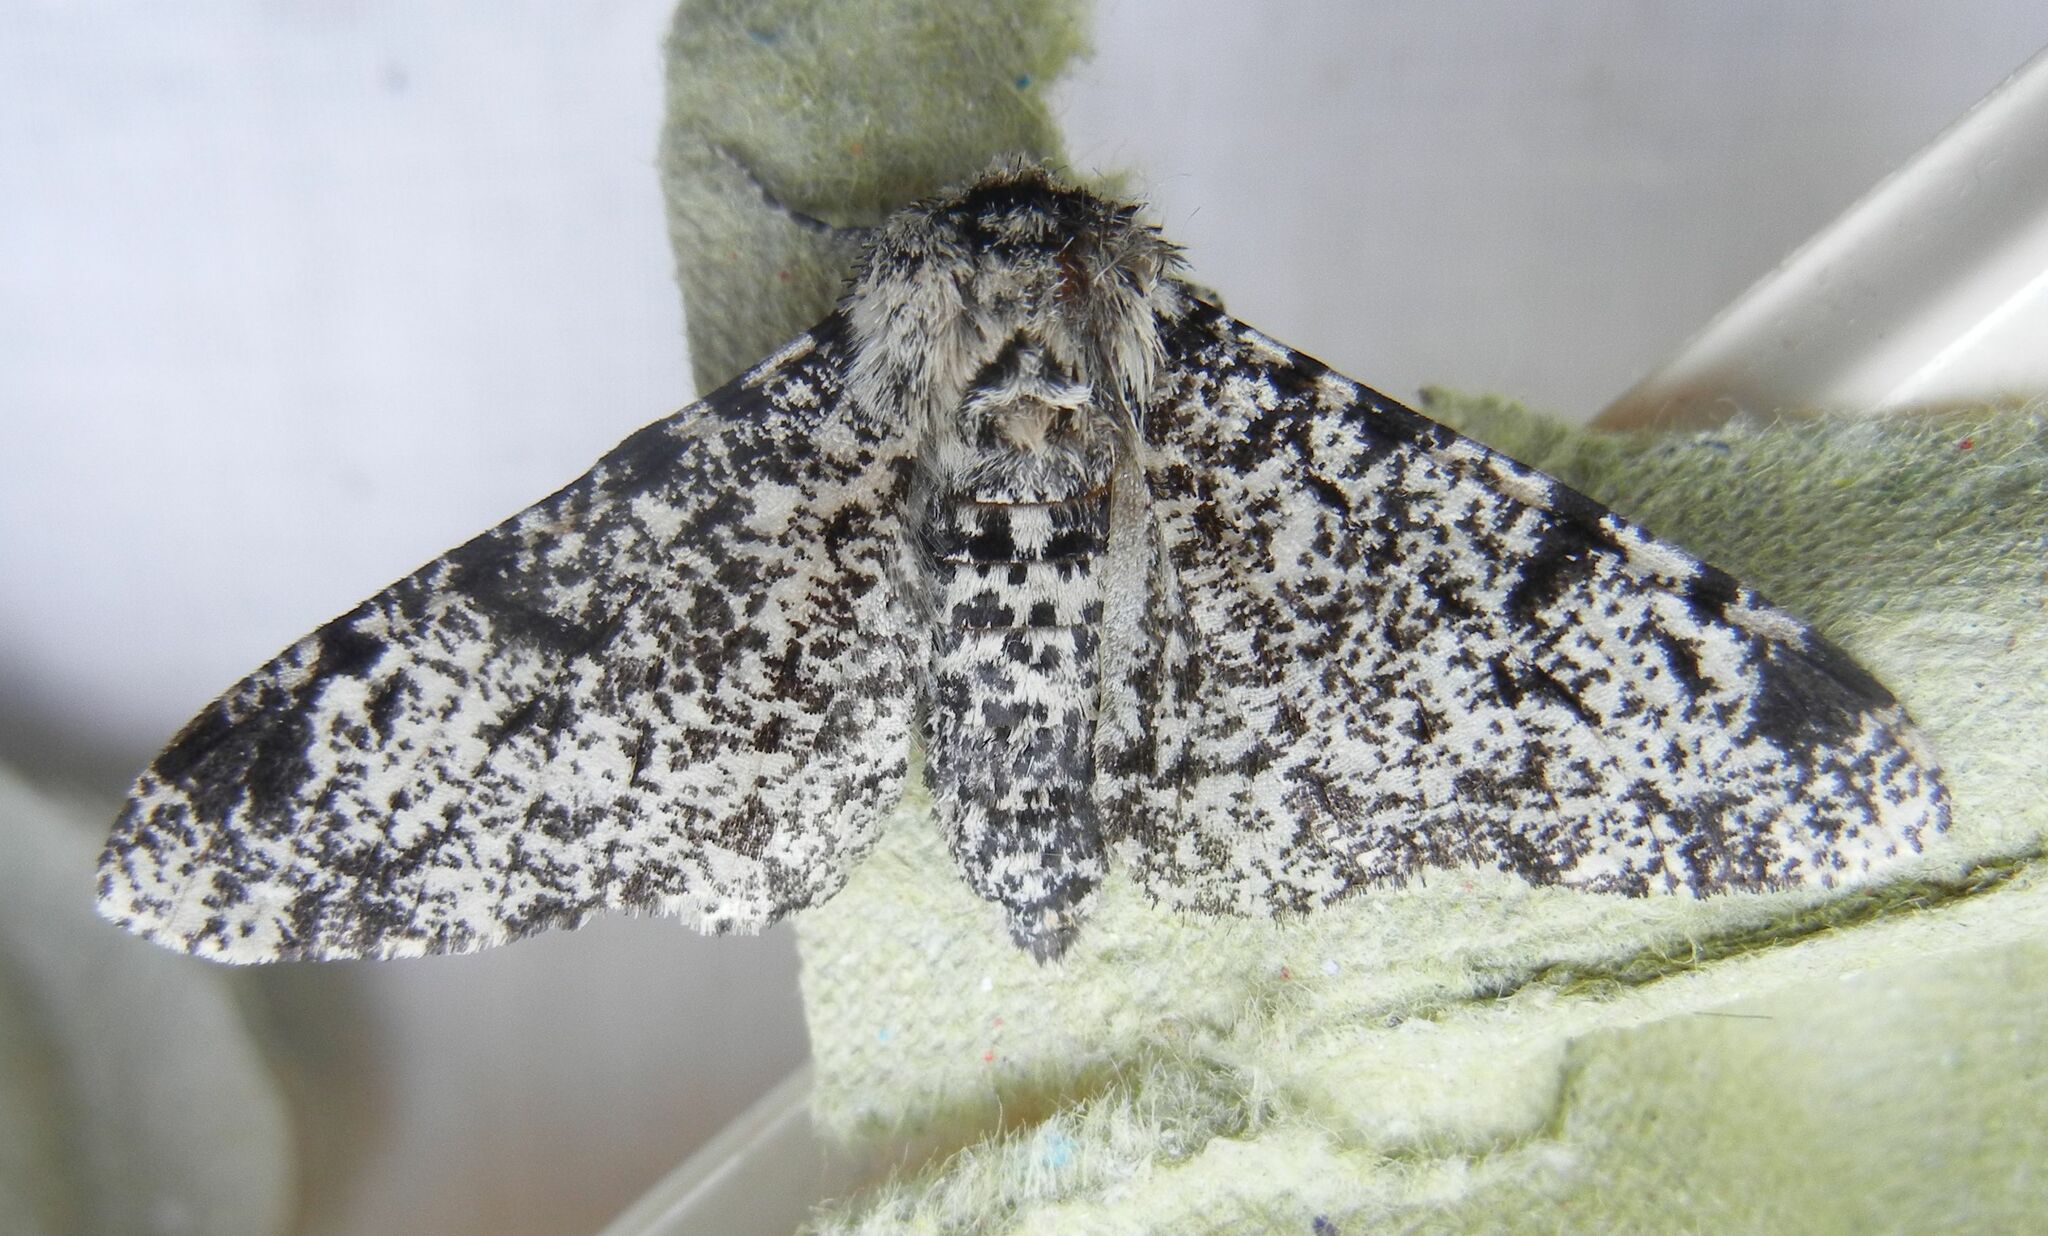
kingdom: Animalia
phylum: Arthropoda
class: Insecta
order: Lepidoptera
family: Geometridae
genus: Biston
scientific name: Biston betularia
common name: Peppered moth
